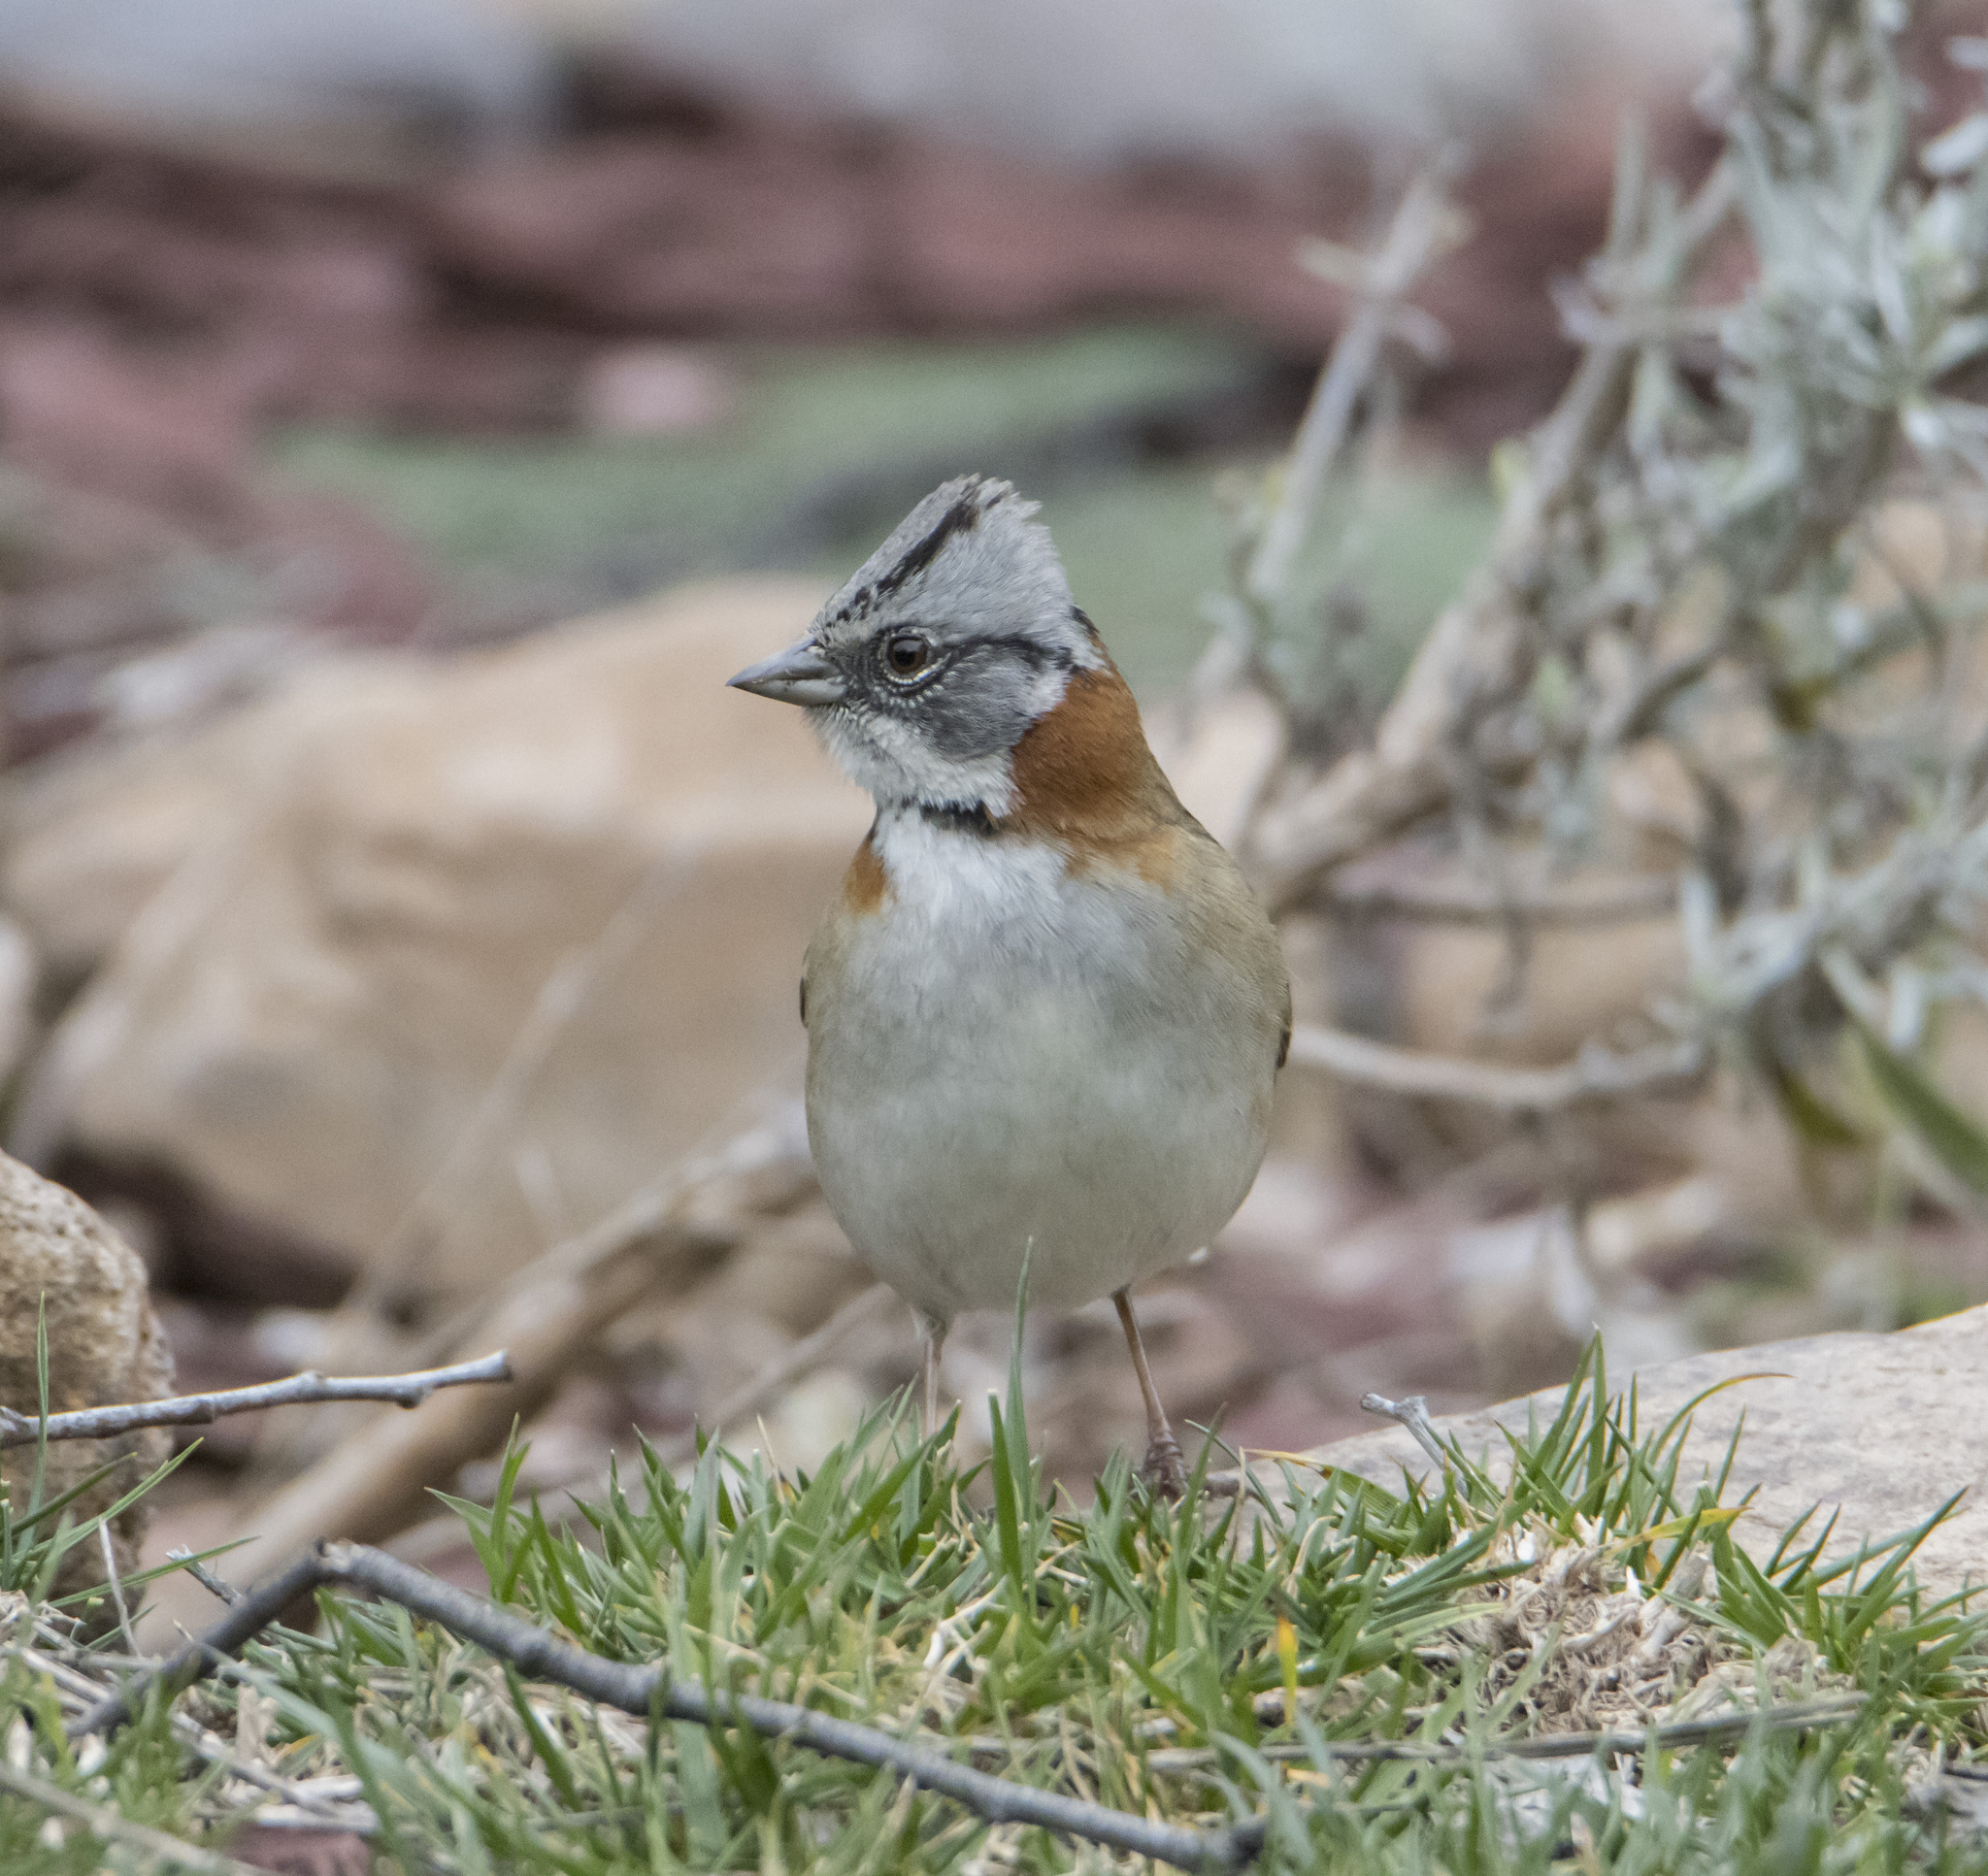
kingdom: Animalia
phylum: Chordata
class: Aves
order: Passeriformes
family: Passerellidae
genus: Zonotrichia
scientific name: Zonotrichia capensis
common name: Rufous-collared sparrow
